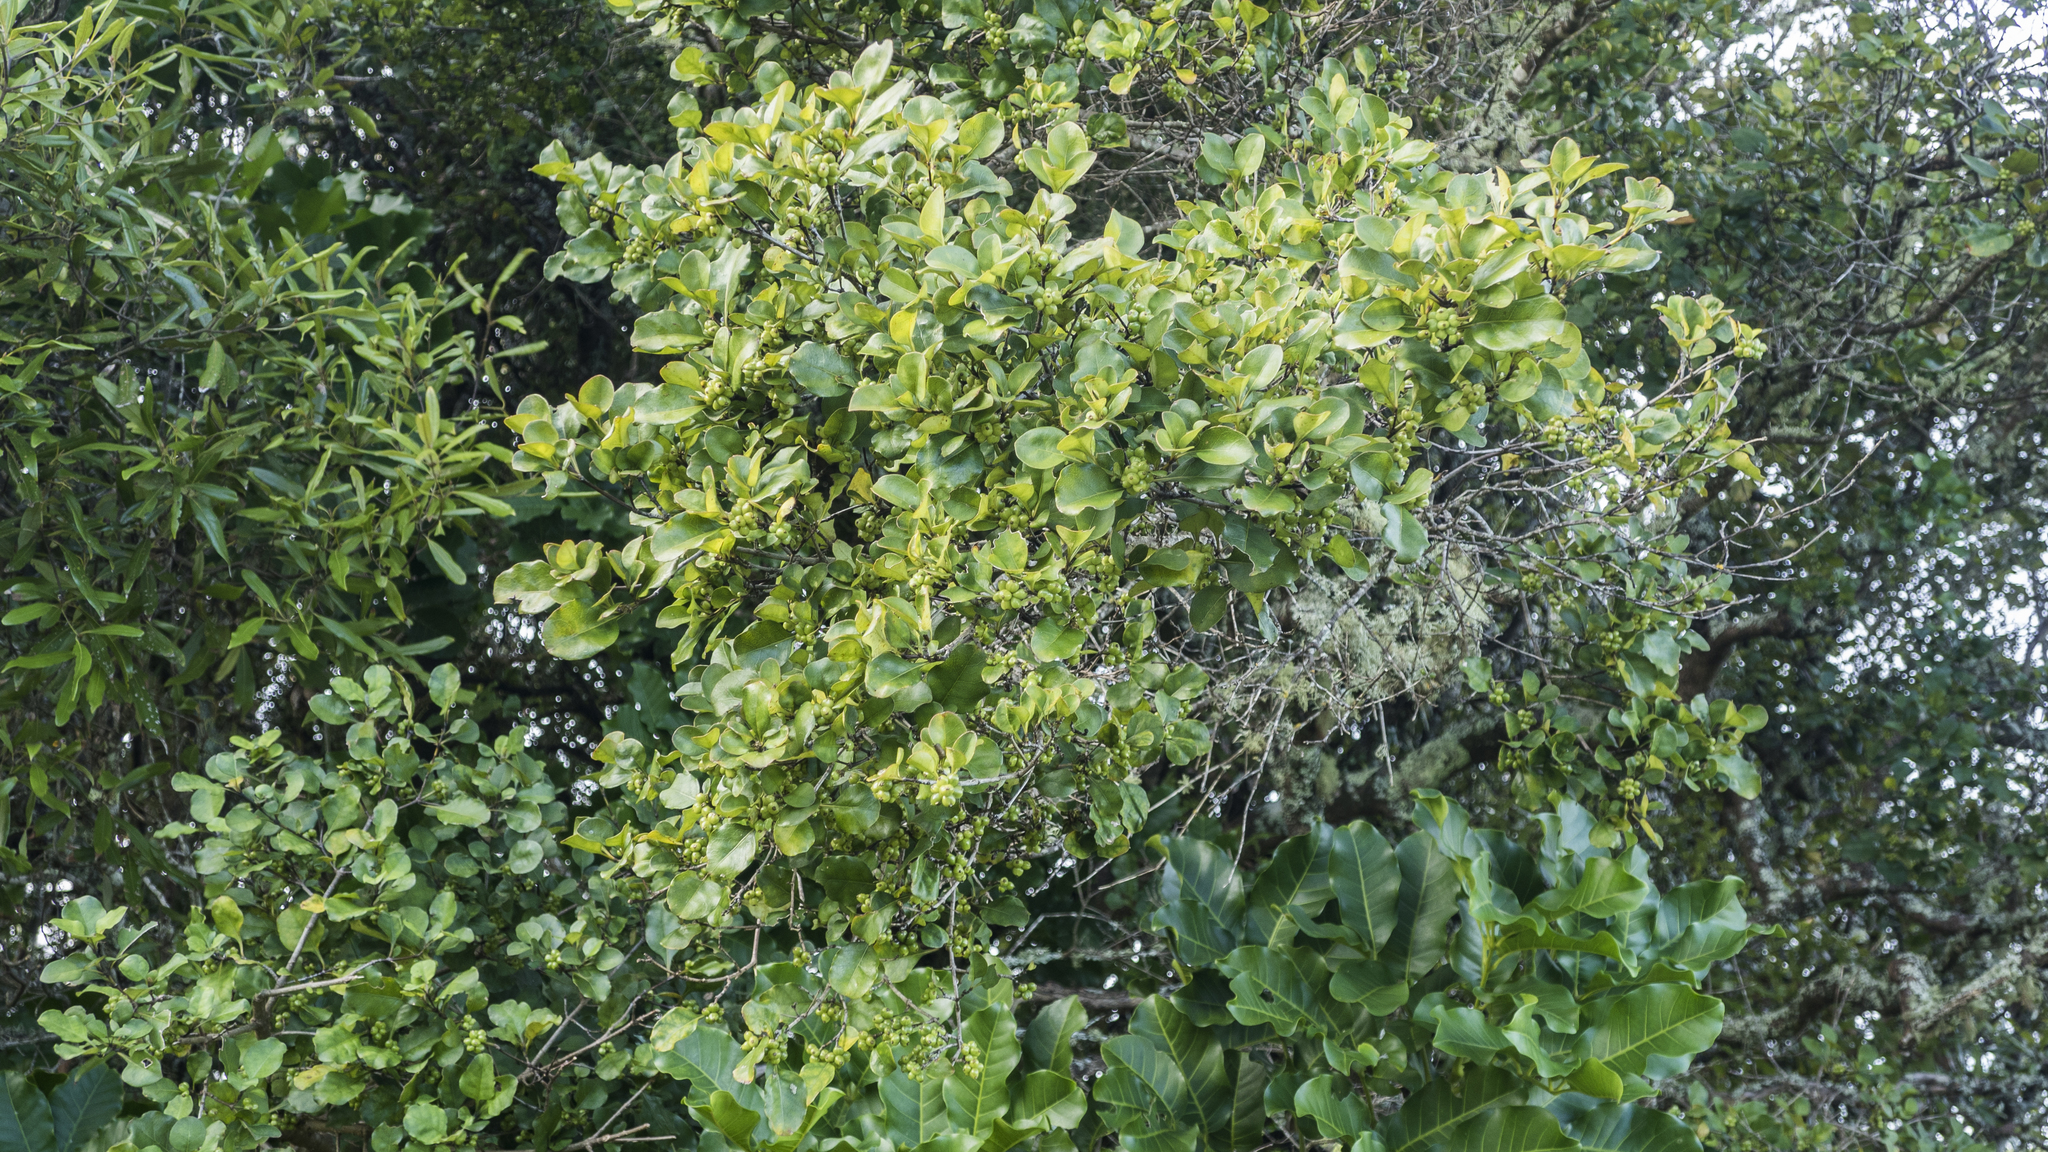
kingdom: Plantae
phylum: Tracheophyta
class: Magnoliopsida
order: Gentianales
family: Rubiaceae
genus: Coprosma
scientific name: Coprosma arborea
